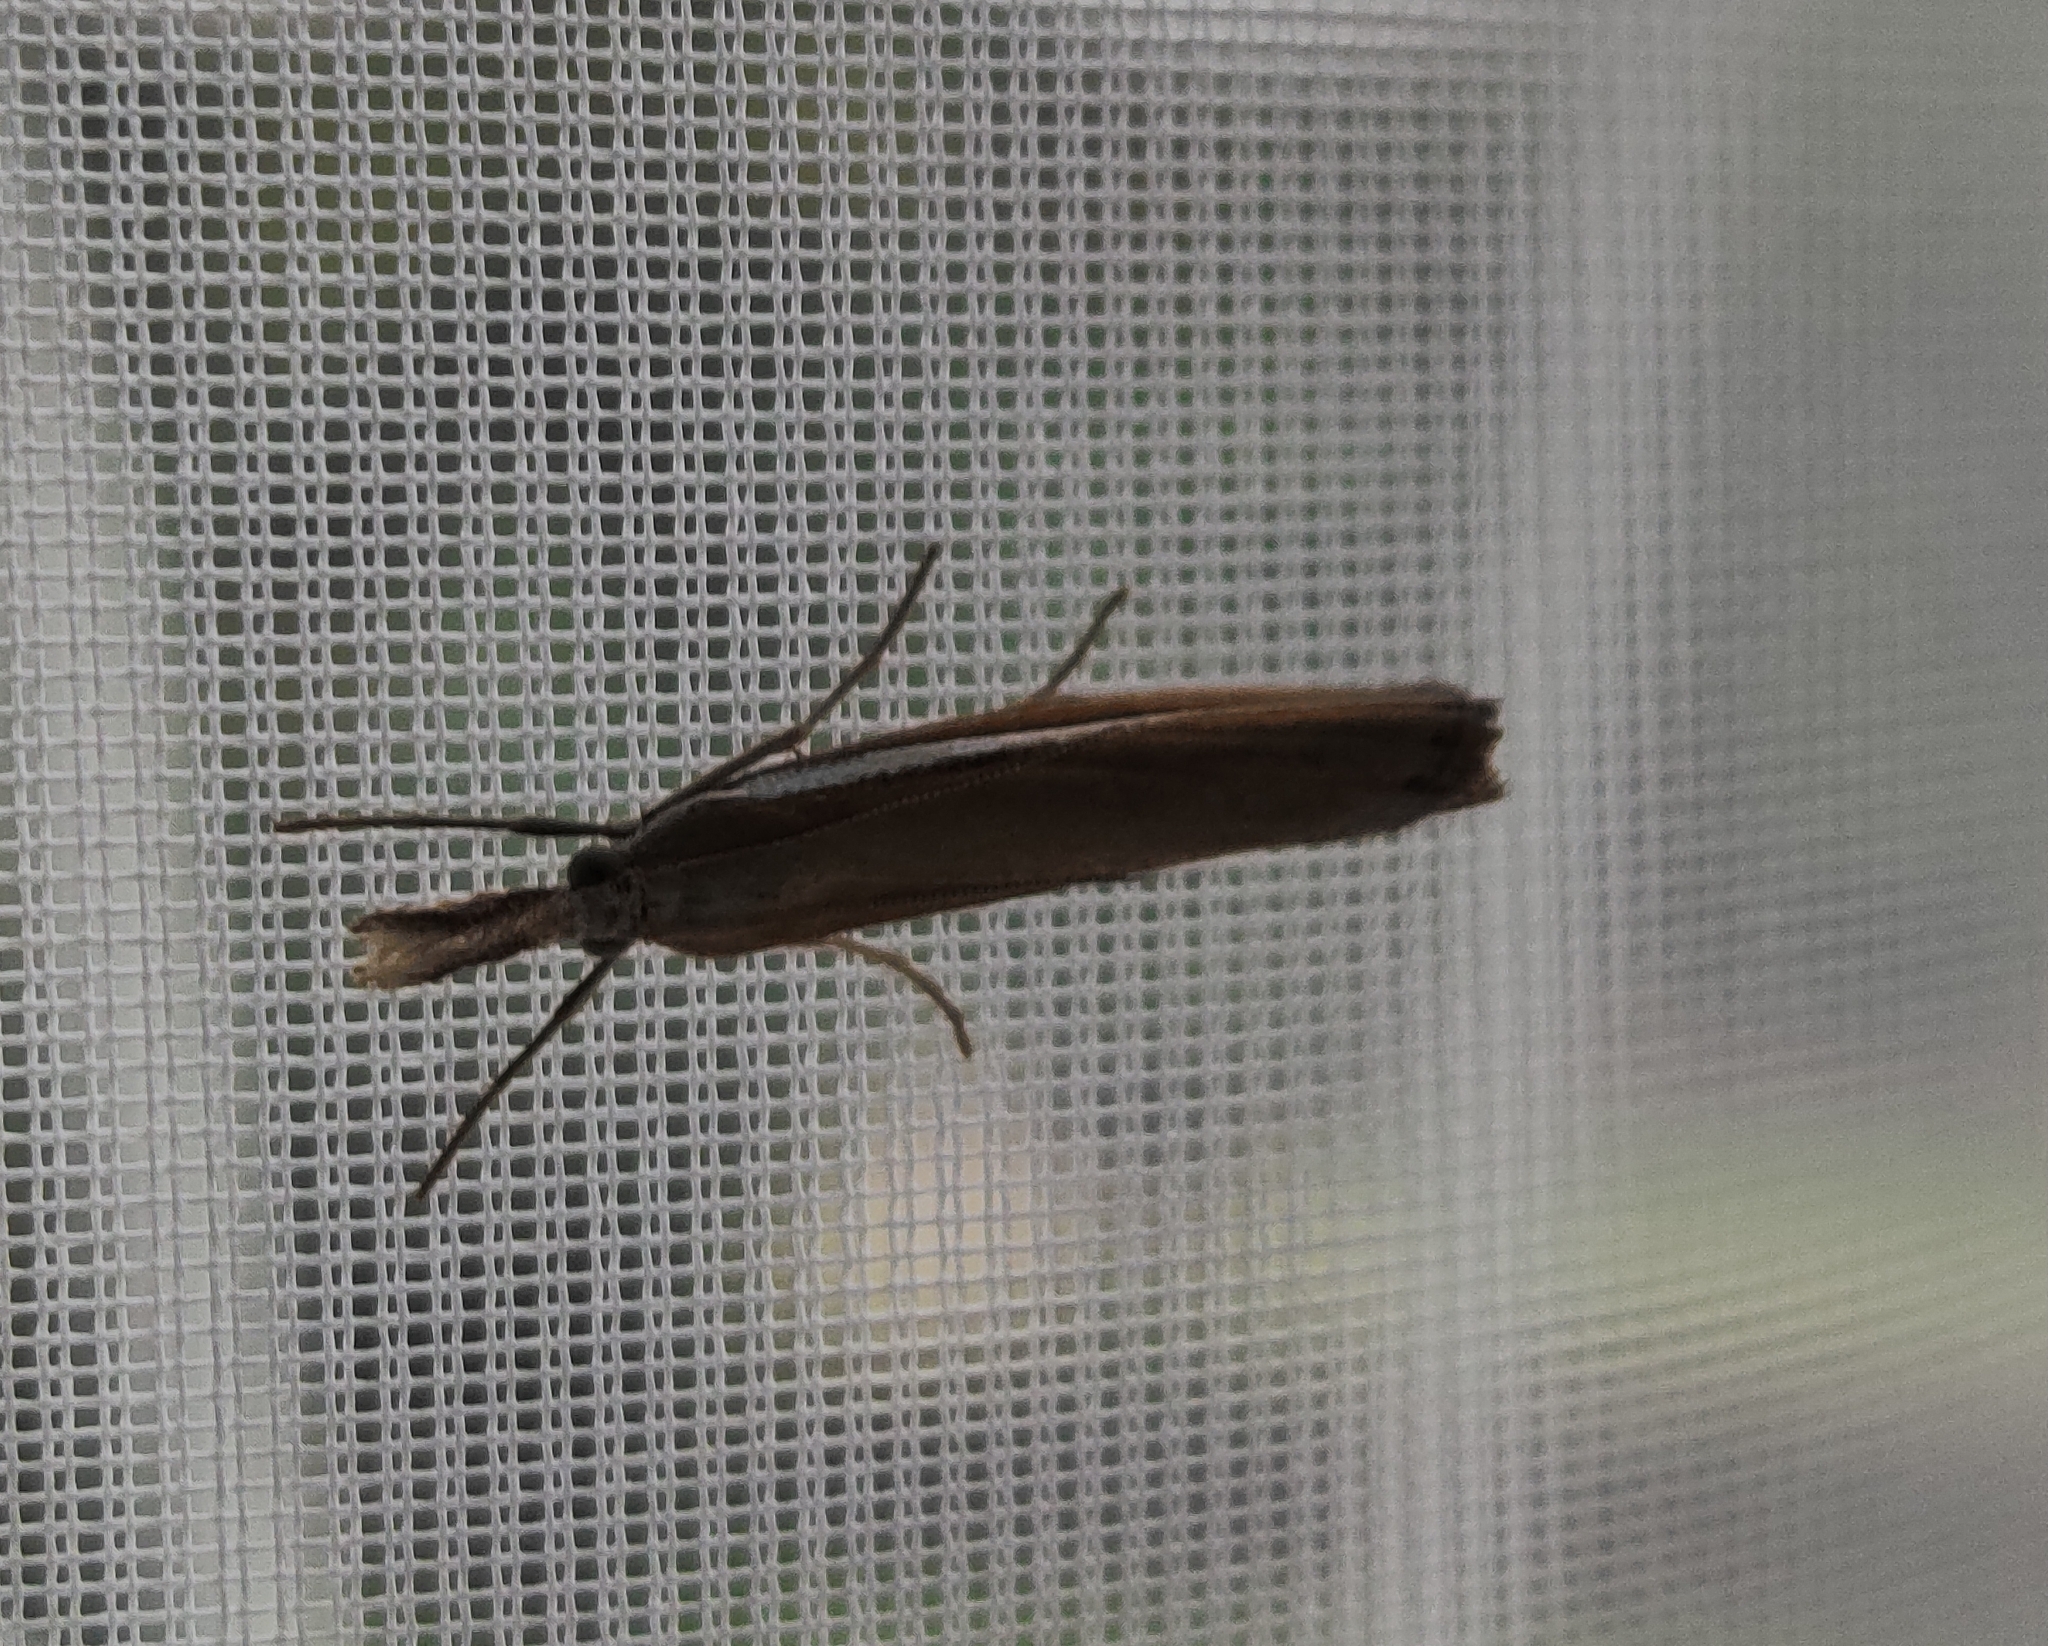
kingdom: Animalia
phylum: Arthropoda
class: Insecta
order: Lepidoptera
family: Crambidae
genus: Agriphila
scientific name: Agriphila tristellus
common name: Common grass-veneer
